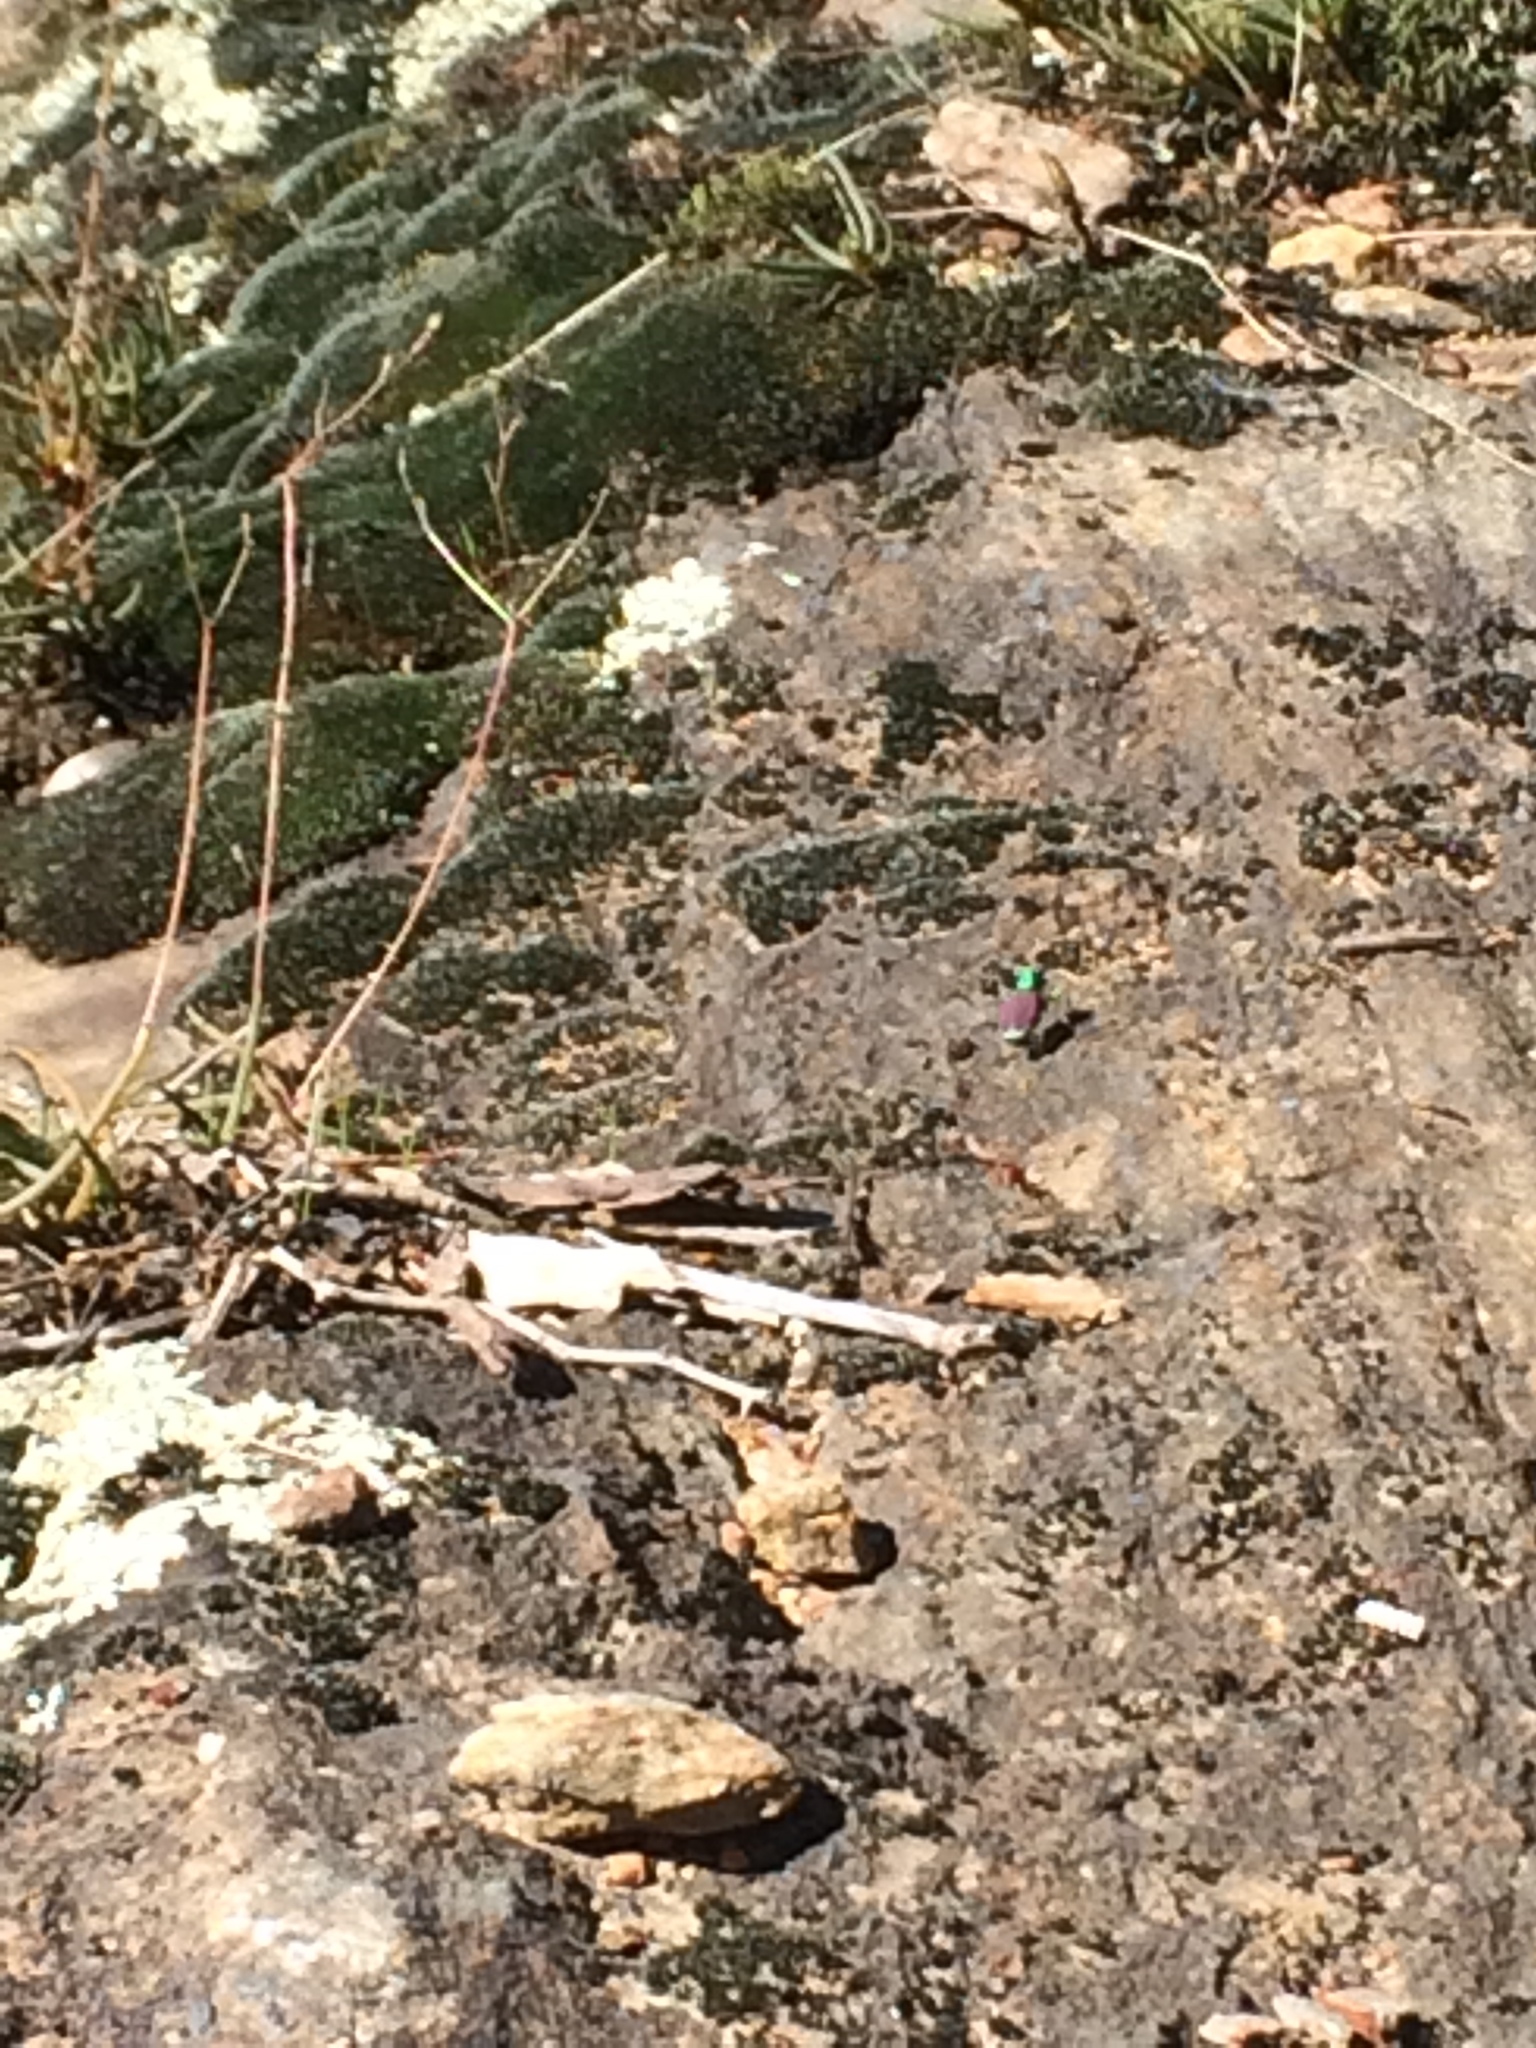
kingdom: Animalia
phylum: Arthropoda
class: Insecta
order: Coleoptera
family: Carabidae
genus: Cicindela
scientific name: Cicindela splendida
